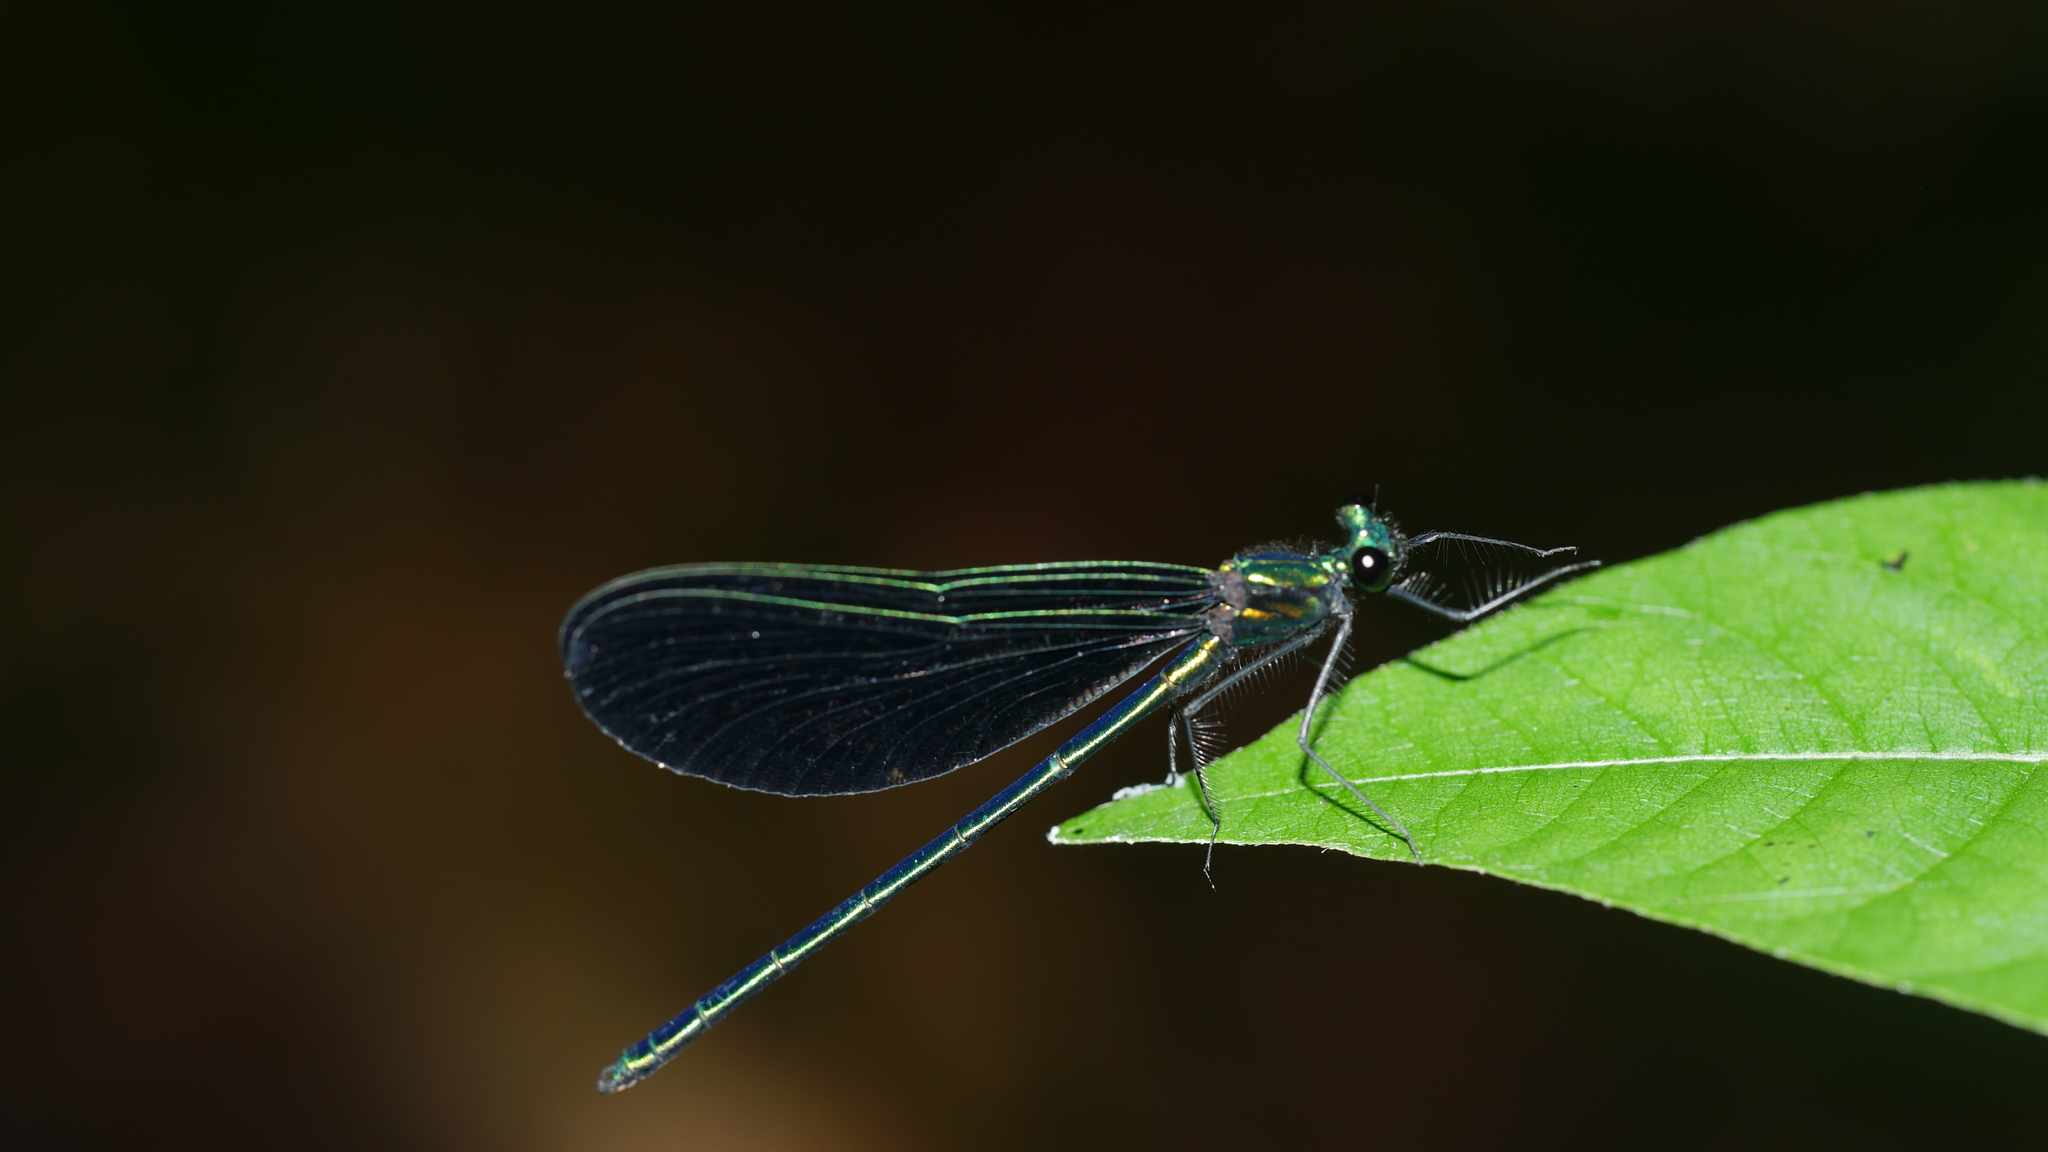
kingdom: Animalia
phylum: Arthropoda
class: Insecta
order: Odonata
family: Calopterygidae
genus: Calopteryx
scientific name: Calopteryx maculata
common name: Ebony jewelwing
